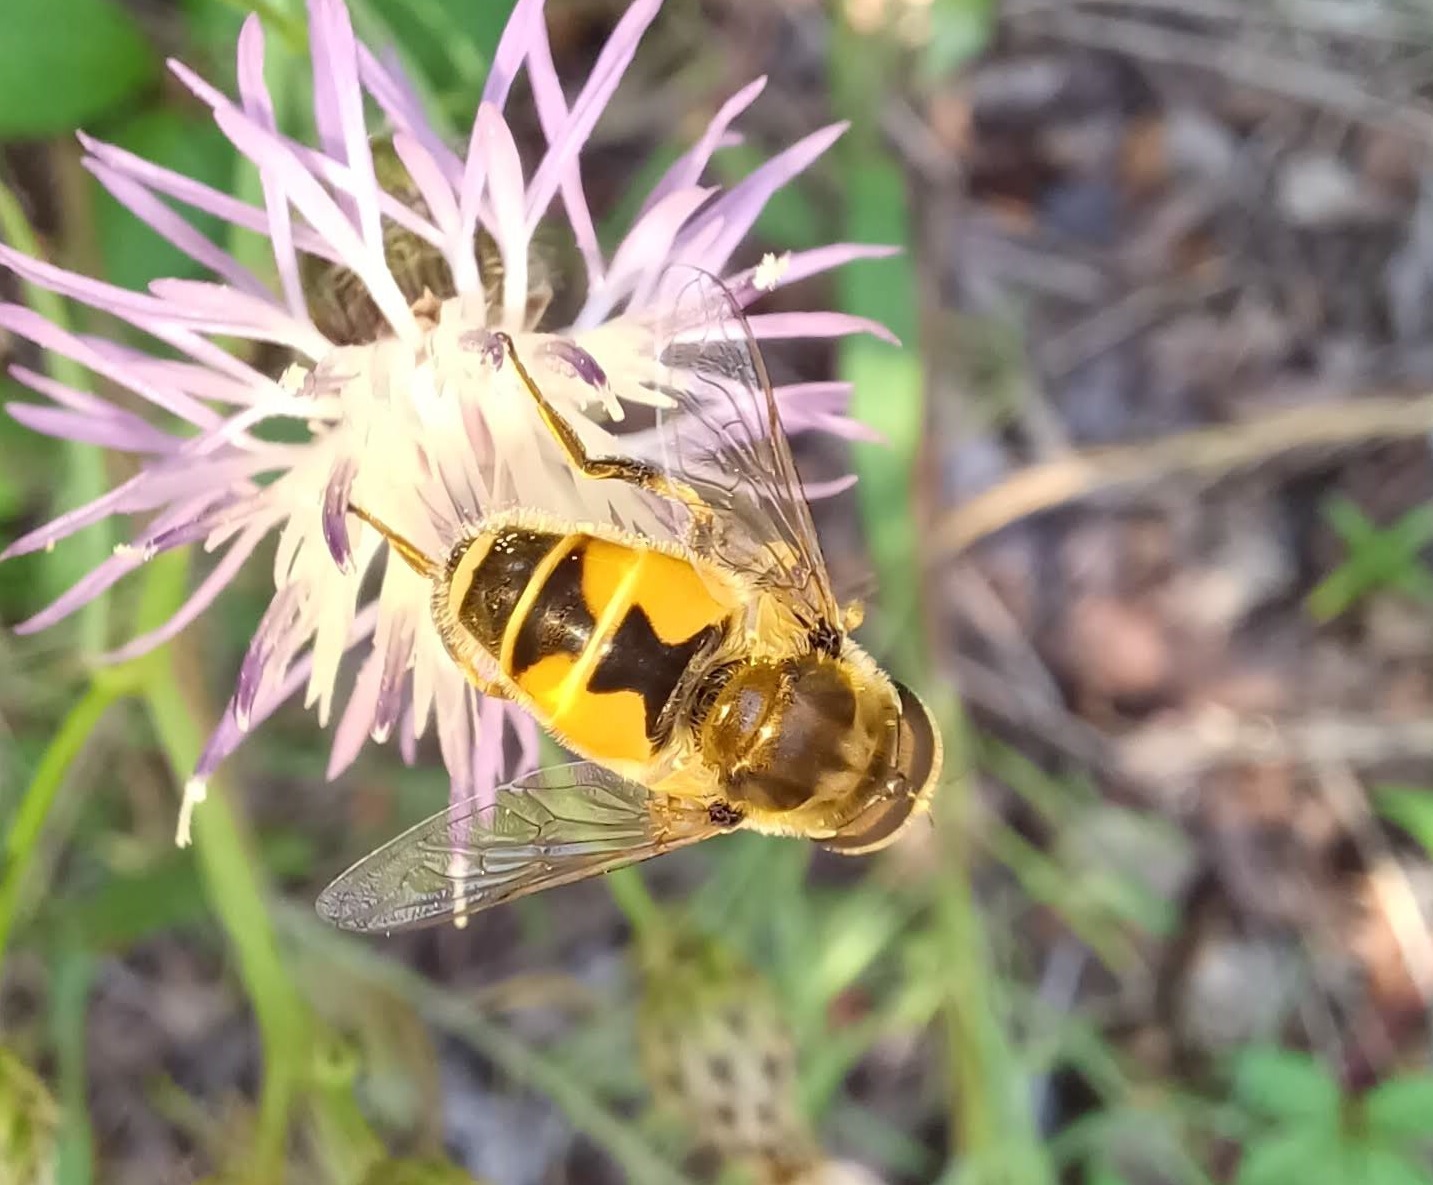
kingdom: Animalia
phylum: Arthropoda
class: Insecta
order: Diptera
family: Syrphidae
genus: Eristalis
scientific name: Eristalis arbustorum
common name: Hover fly
